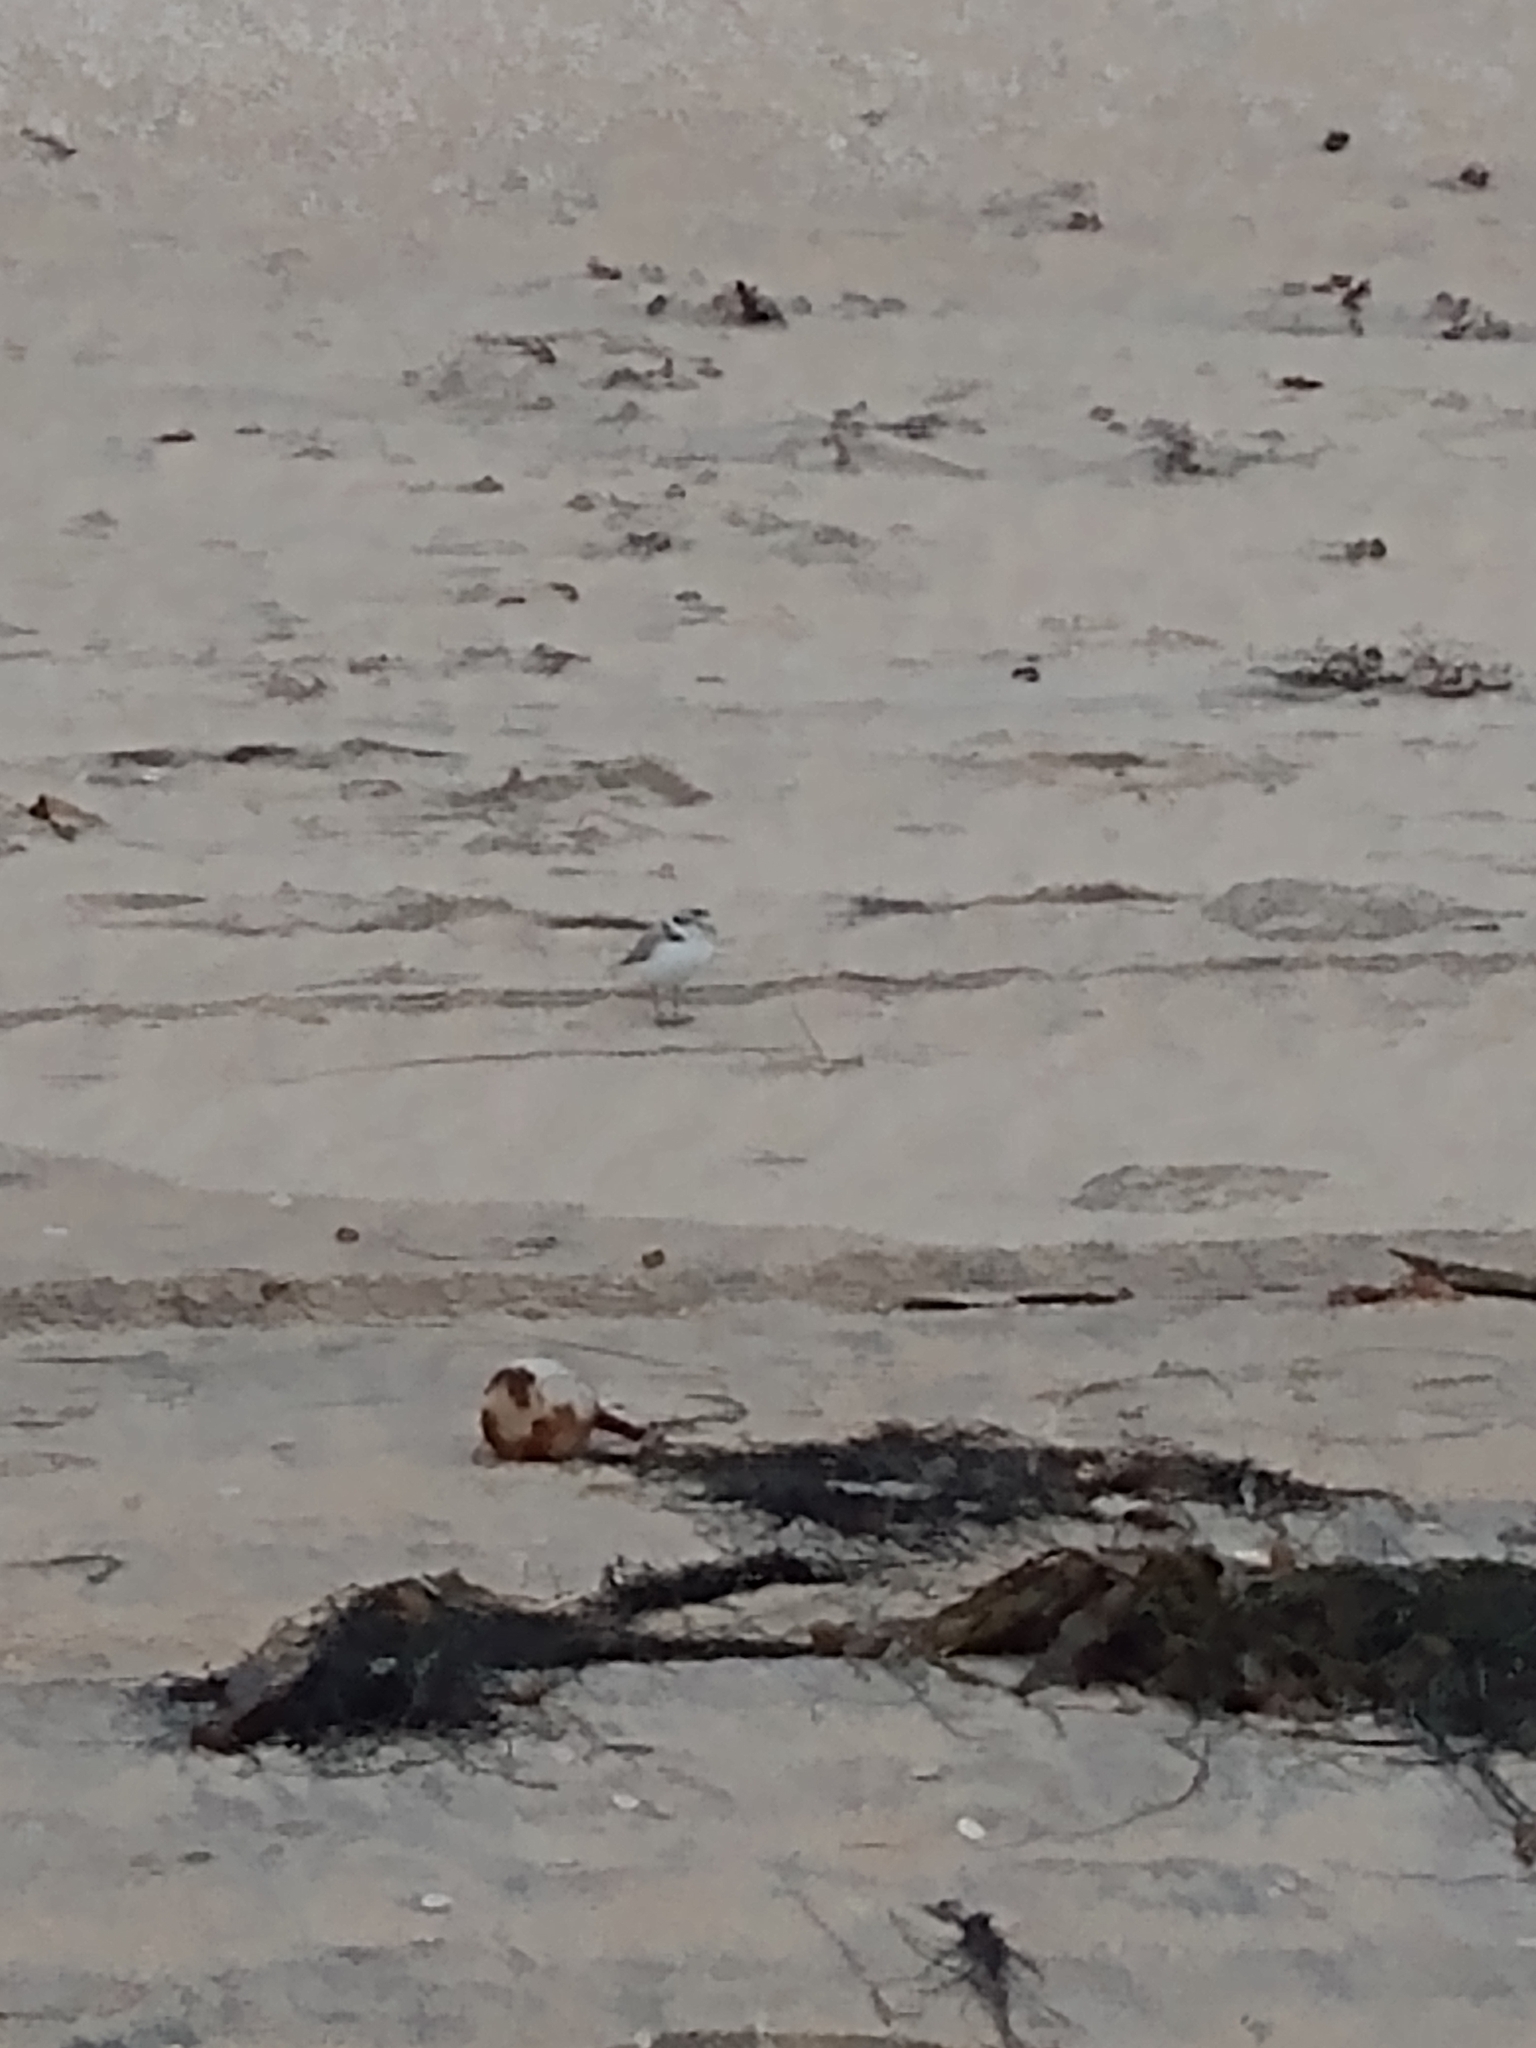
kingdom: Animalia
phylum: Chordata
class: Aves
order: Charadriiformes
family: Charadriidae
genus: Anarhynchus
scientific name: Anarhynchus
